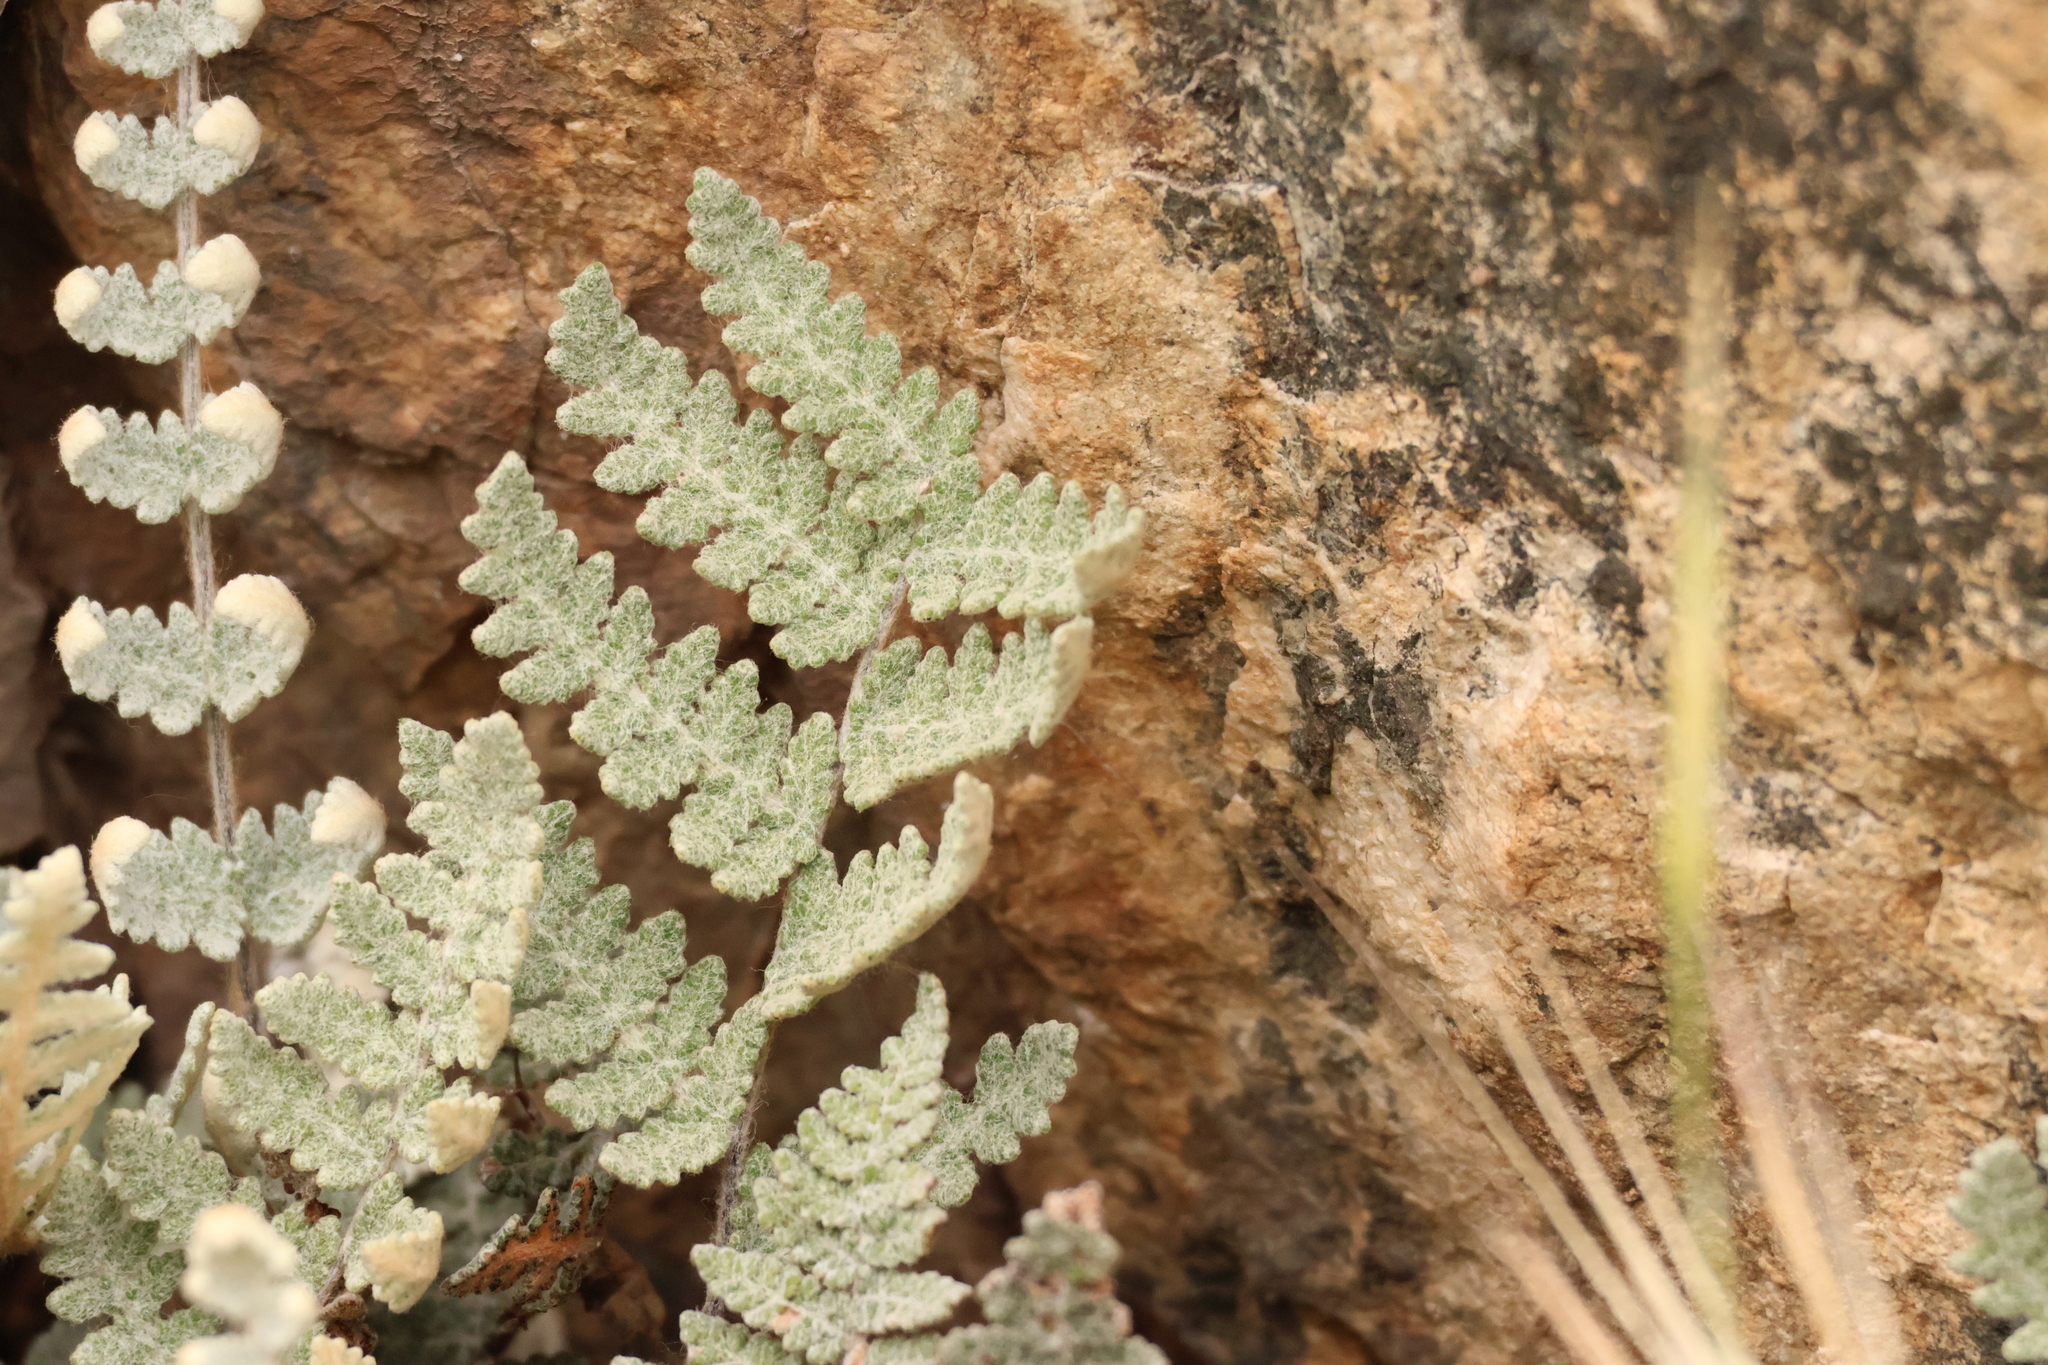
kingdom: Plantae
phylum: Tracheophyta
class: Polypodiopsida
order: Polypodiales
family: Pteridaceae
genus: Myriopteris
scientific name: Myriopteris newberryi
